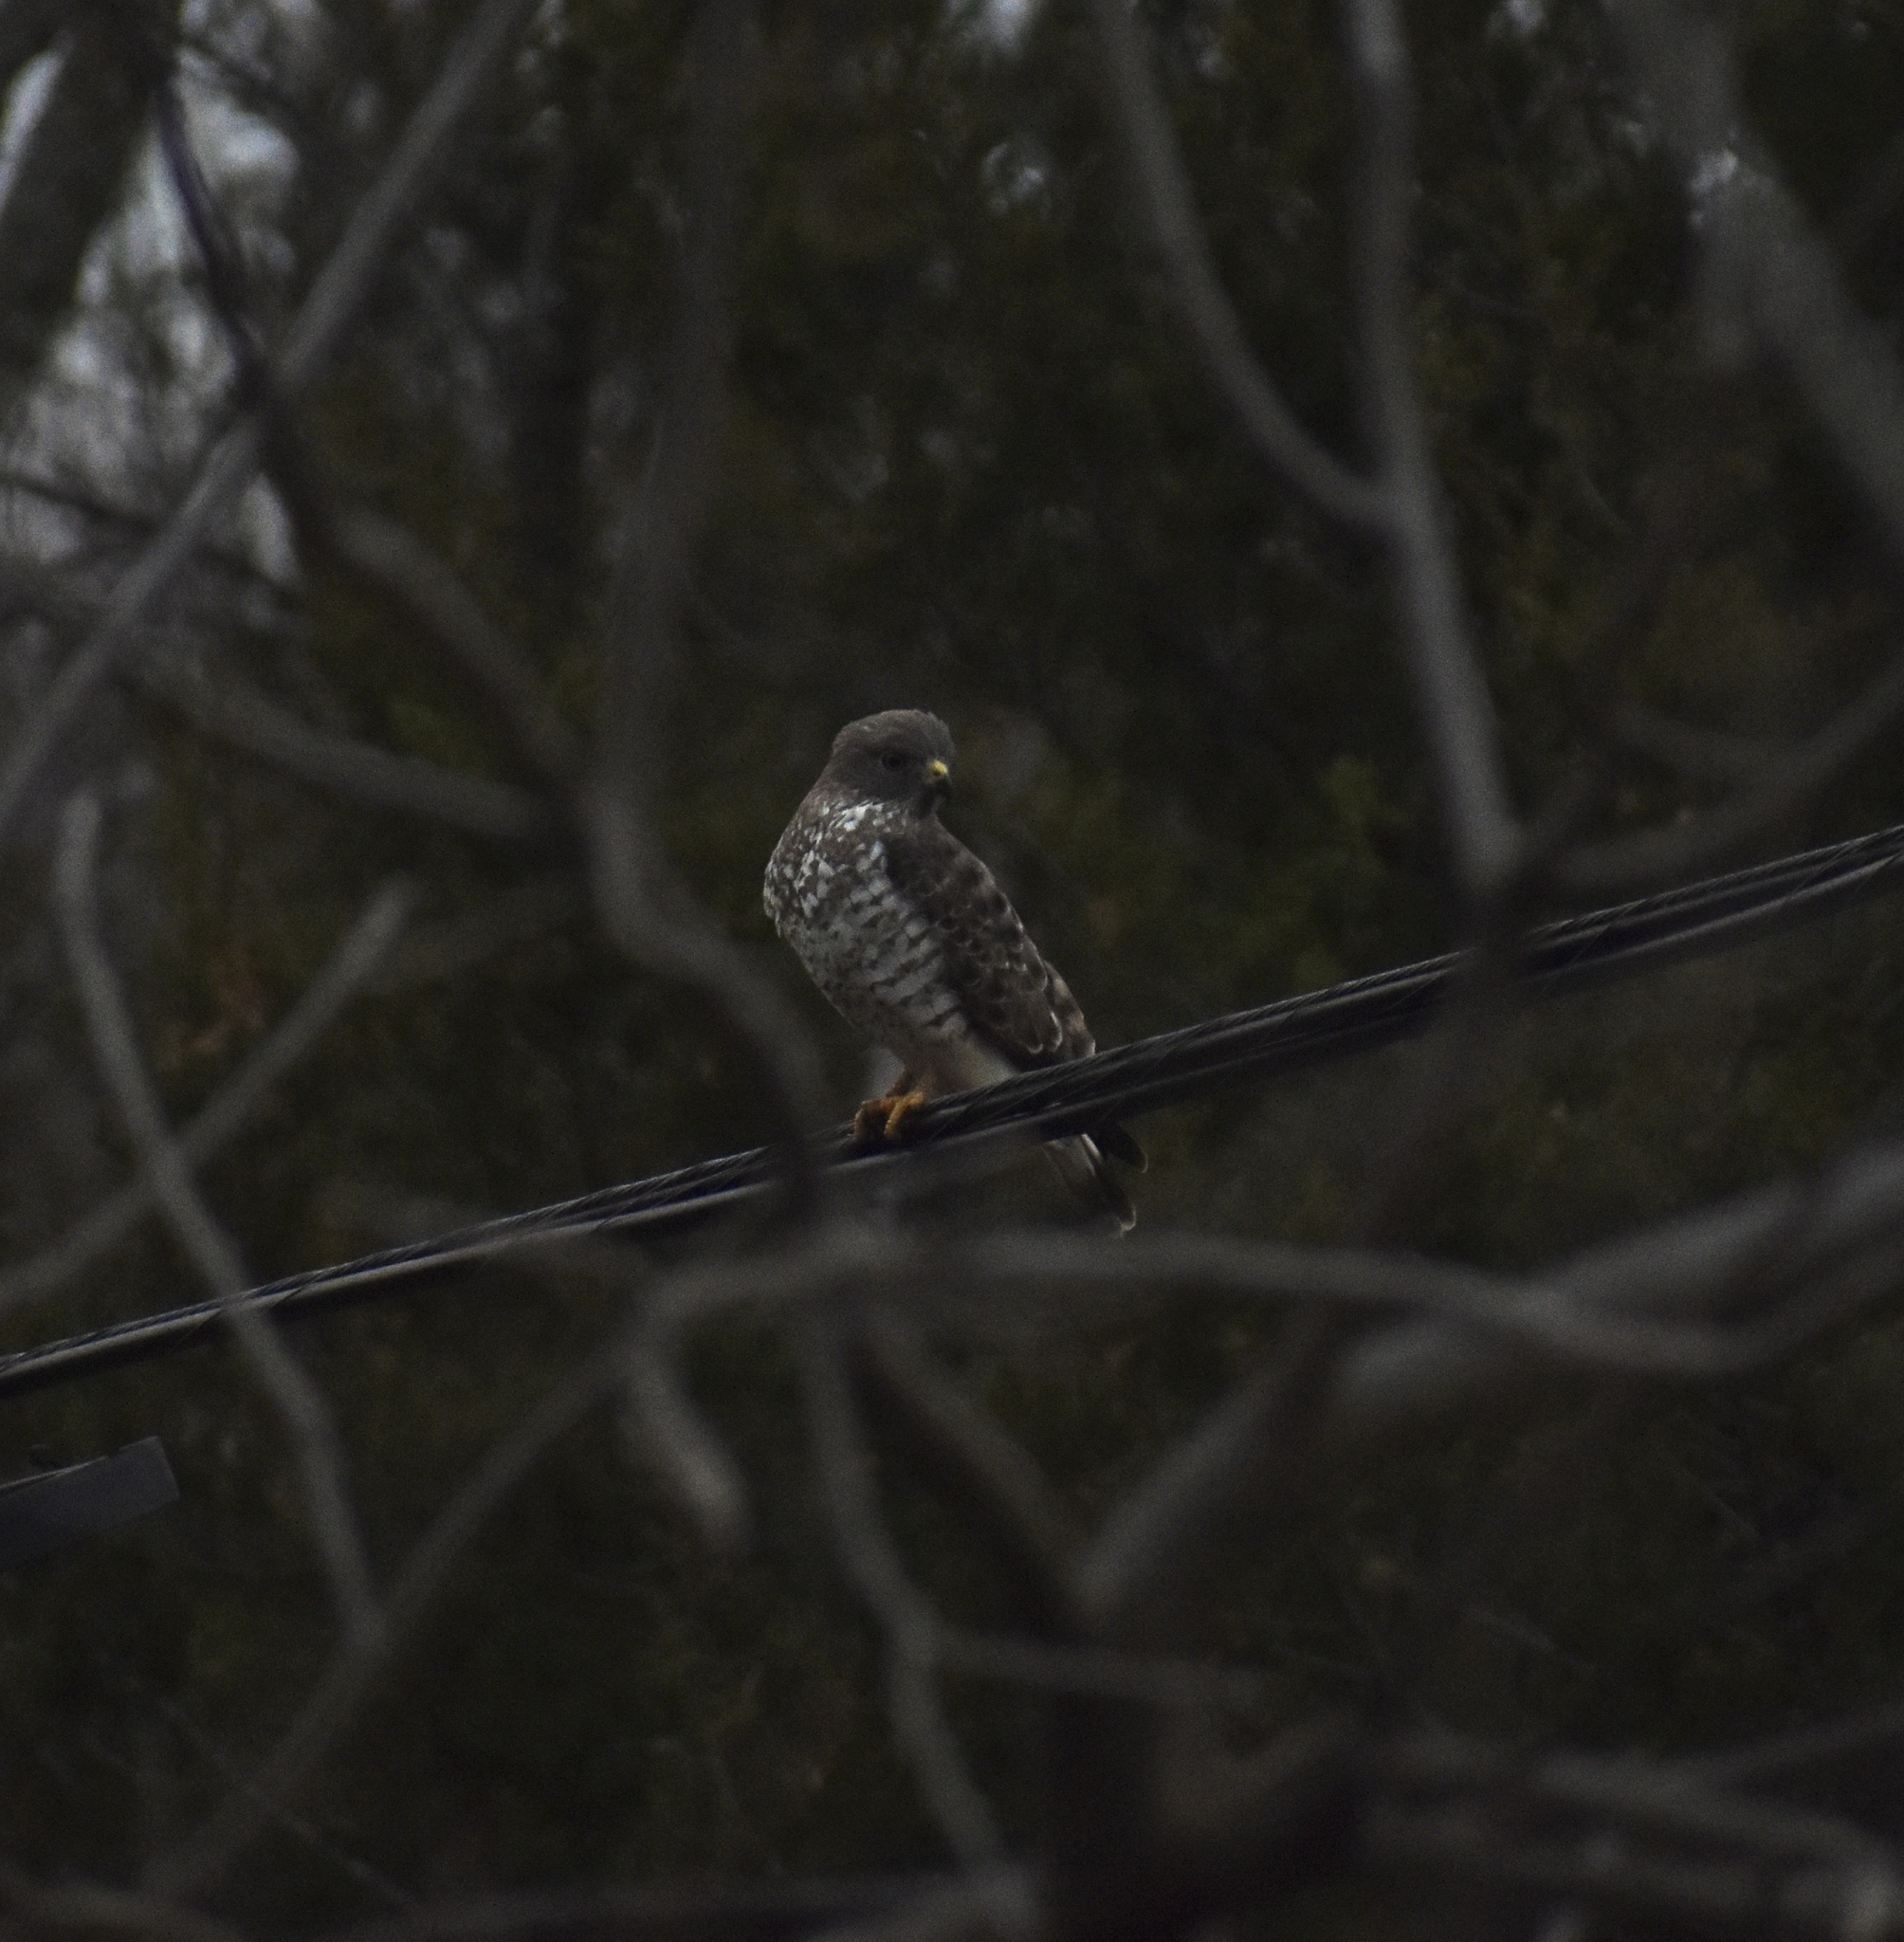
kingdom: Animalia
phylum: Chordata
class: Aves
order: Accipitriformes
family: Accipitridae
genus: Buteo
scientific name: Buteo platypterus
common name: Broad-winged hawk
